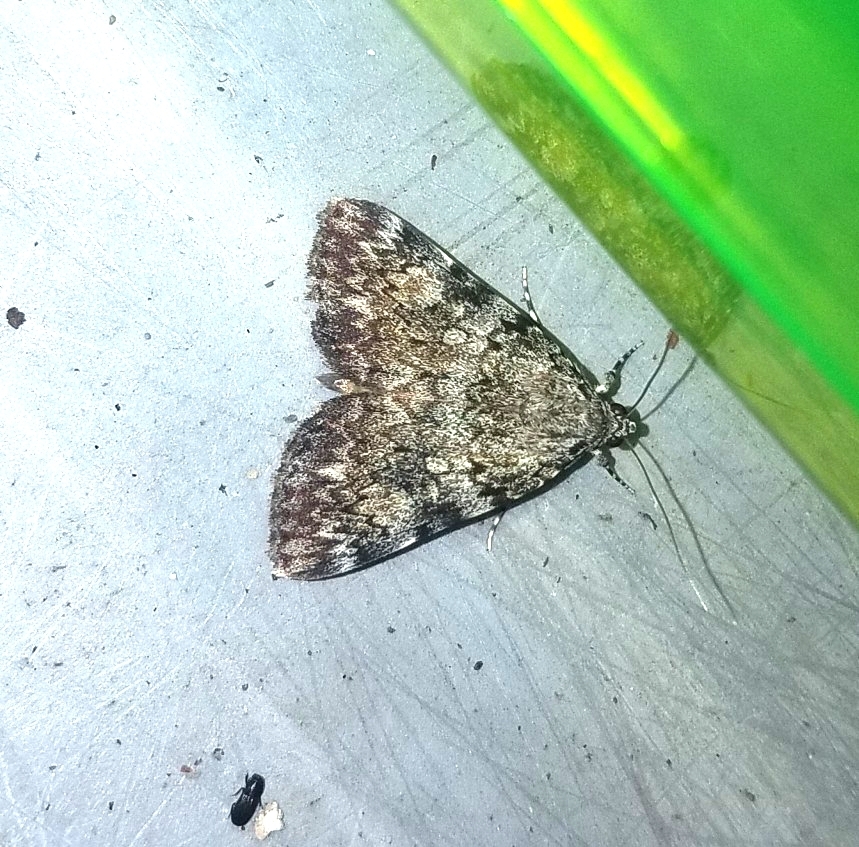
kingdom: Animalia
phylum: Arthropoda
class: Insecta
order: Lepidoptera
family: Erebidae
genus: Catocala
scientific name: Catocala lineella
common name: Little lined underwing
